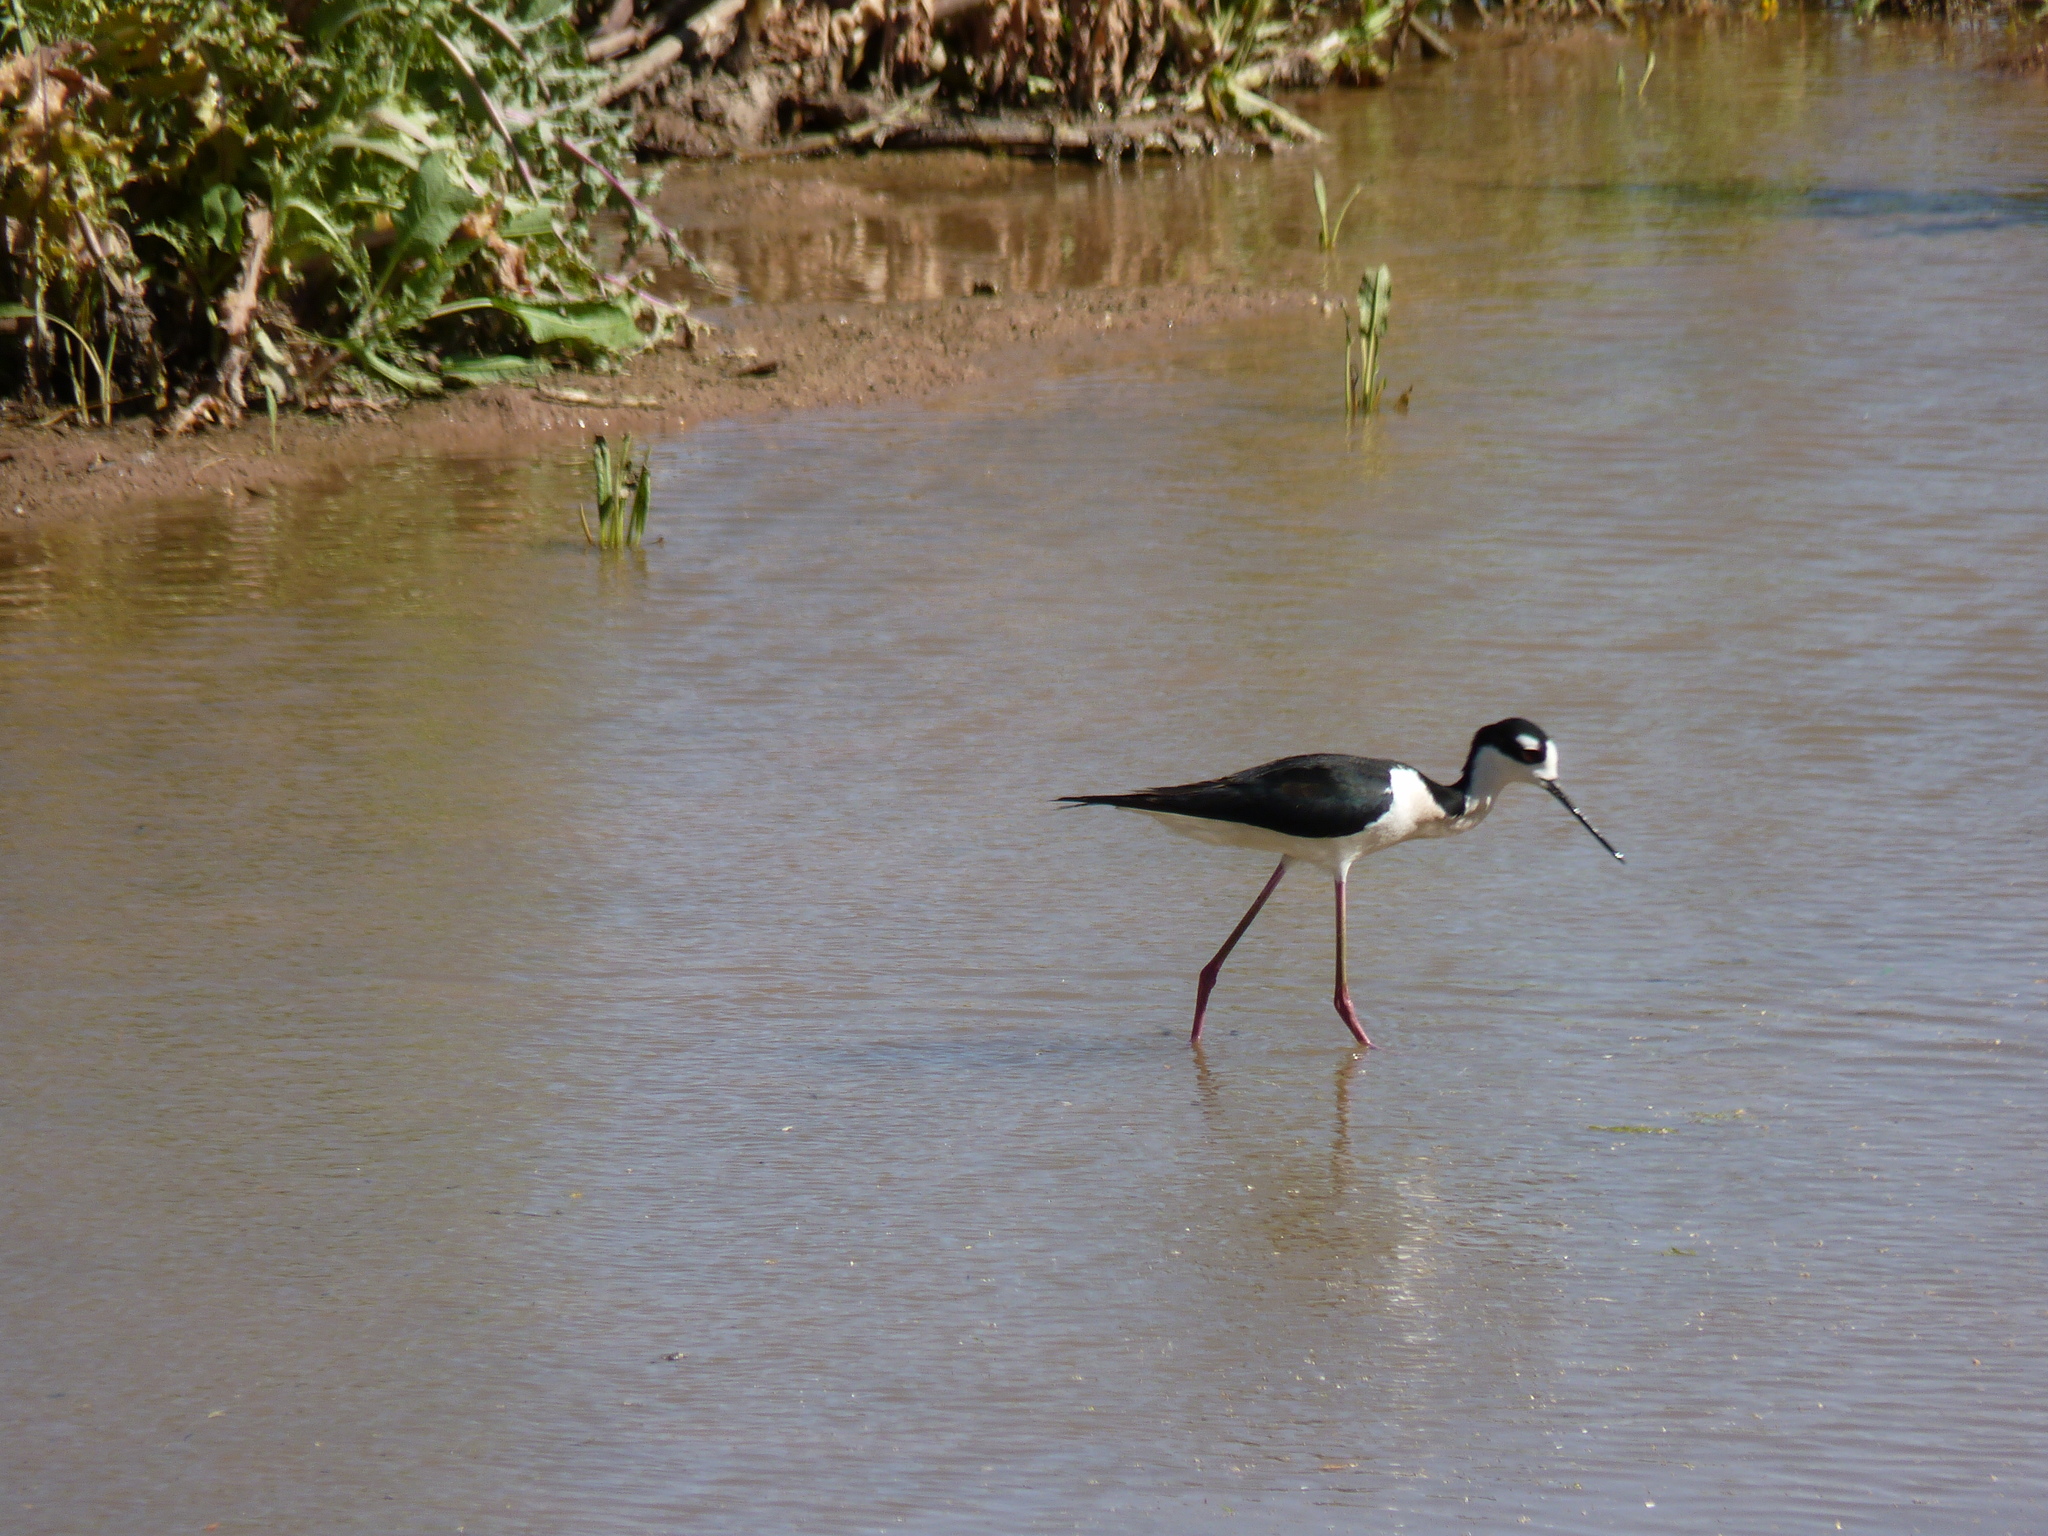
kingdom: Animalia
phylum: Chordata
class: Aves
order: Charadriiformes
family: Recurvirostridae
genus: Himantopus
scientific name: Himantopus mexicanus
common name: Black-necked stilt
